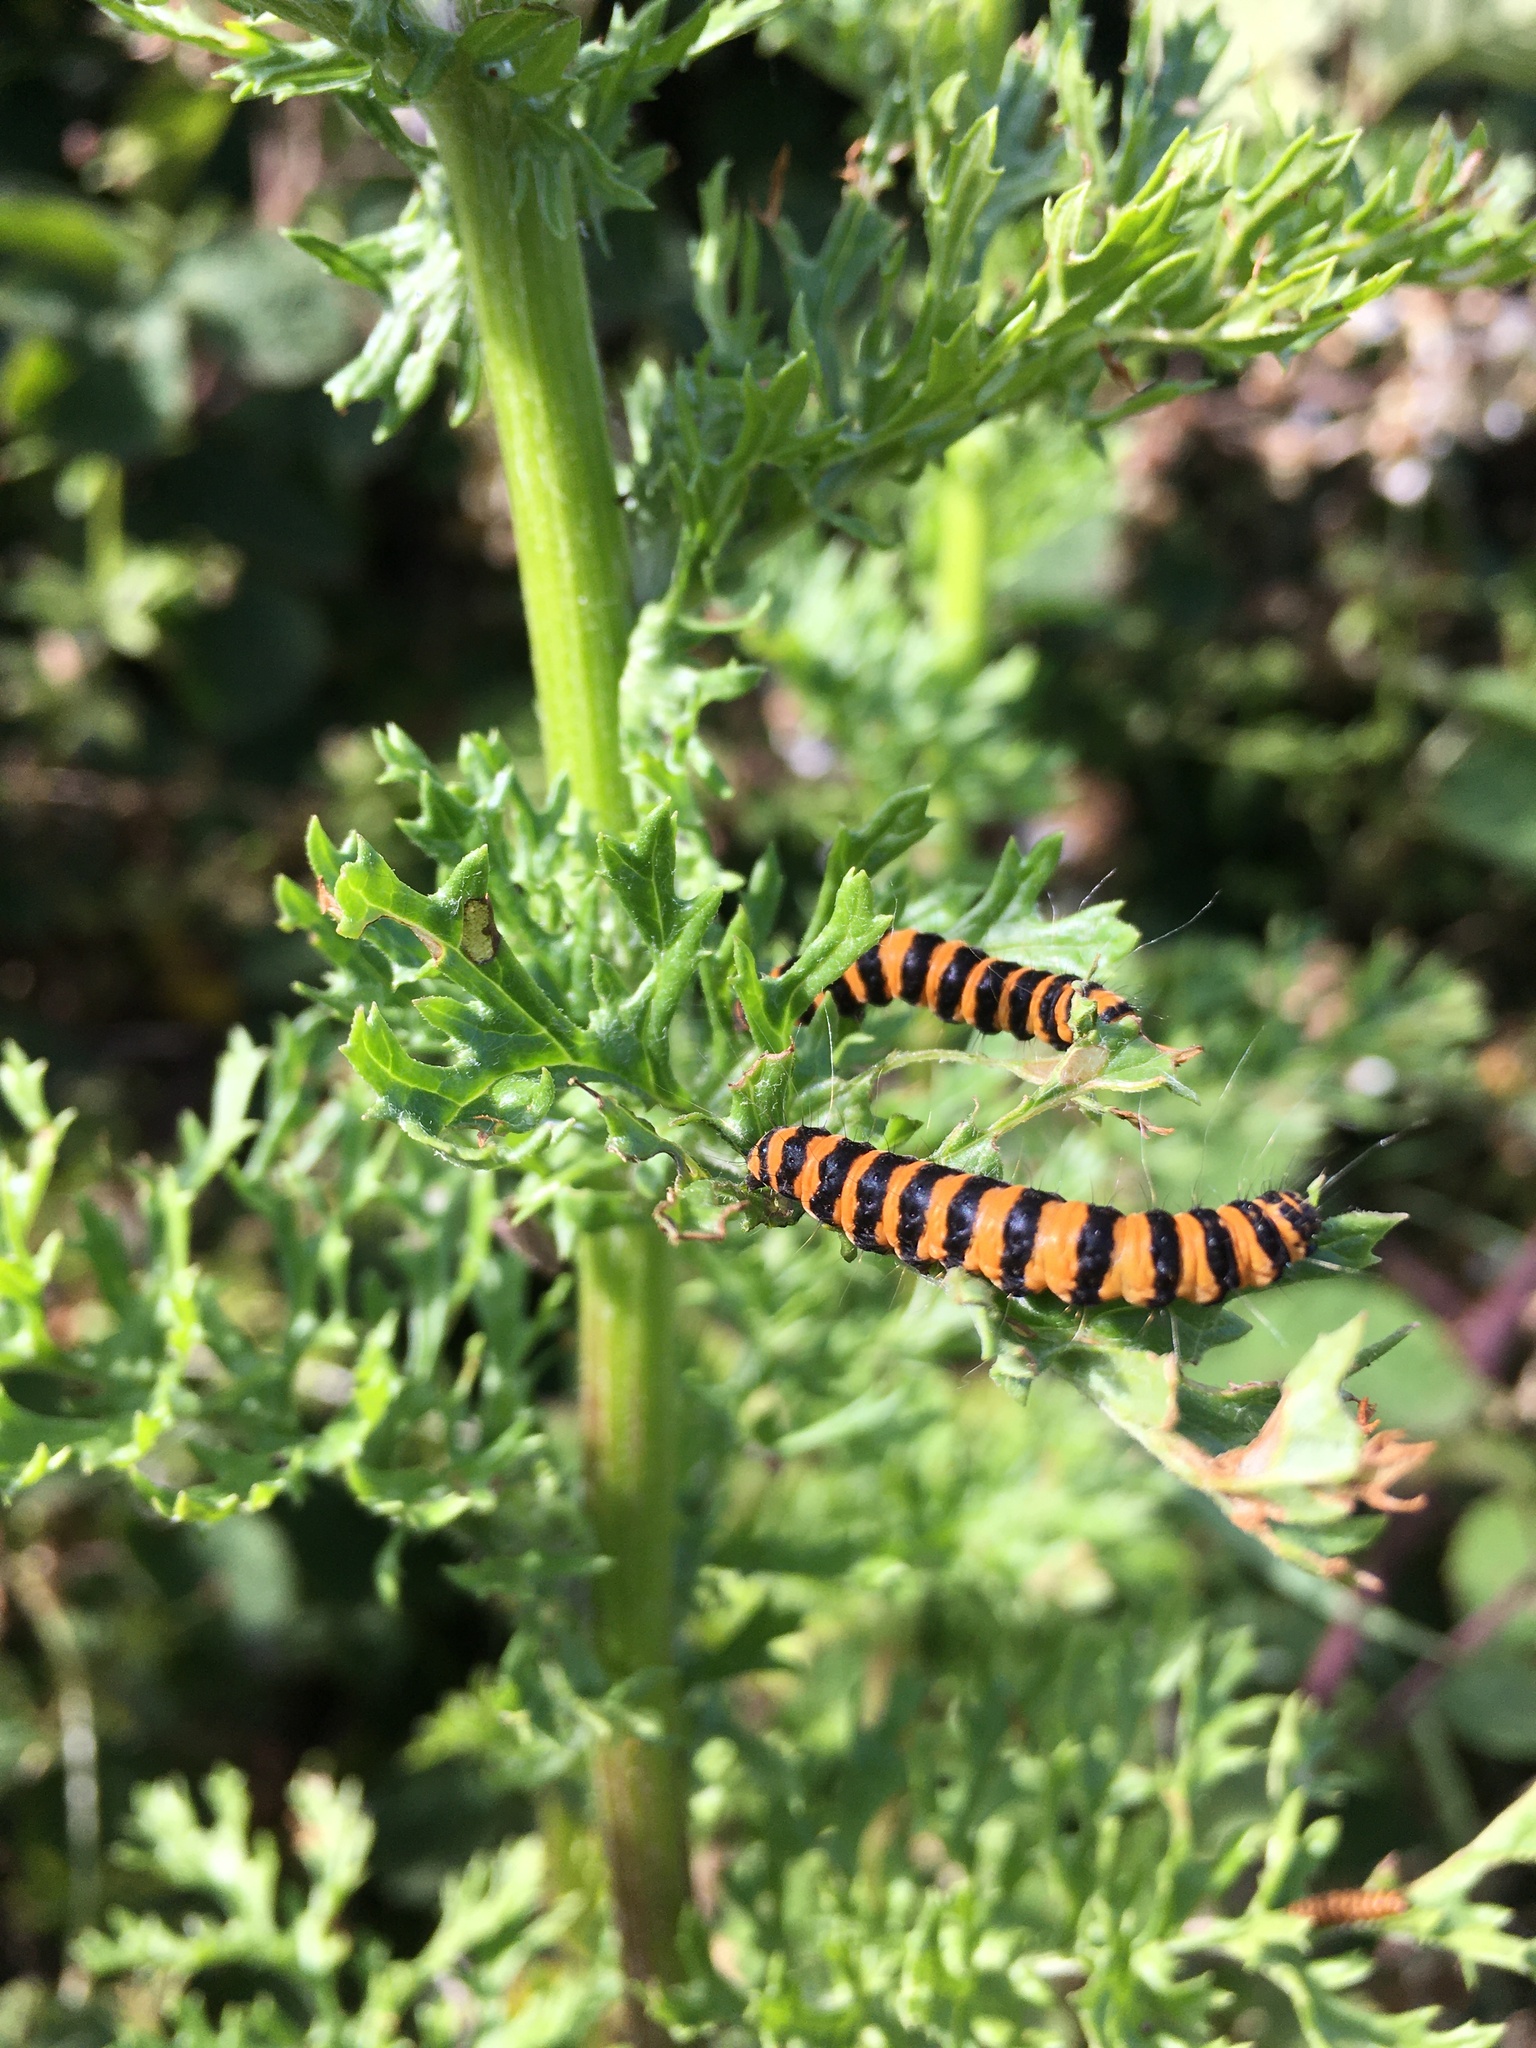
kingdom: Animalia
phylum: Arthropoda
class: Insecta
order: Lepidoptera
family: Erebidae
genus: Tyria
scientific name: Tyria jacobaeae
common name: Cinnabar
